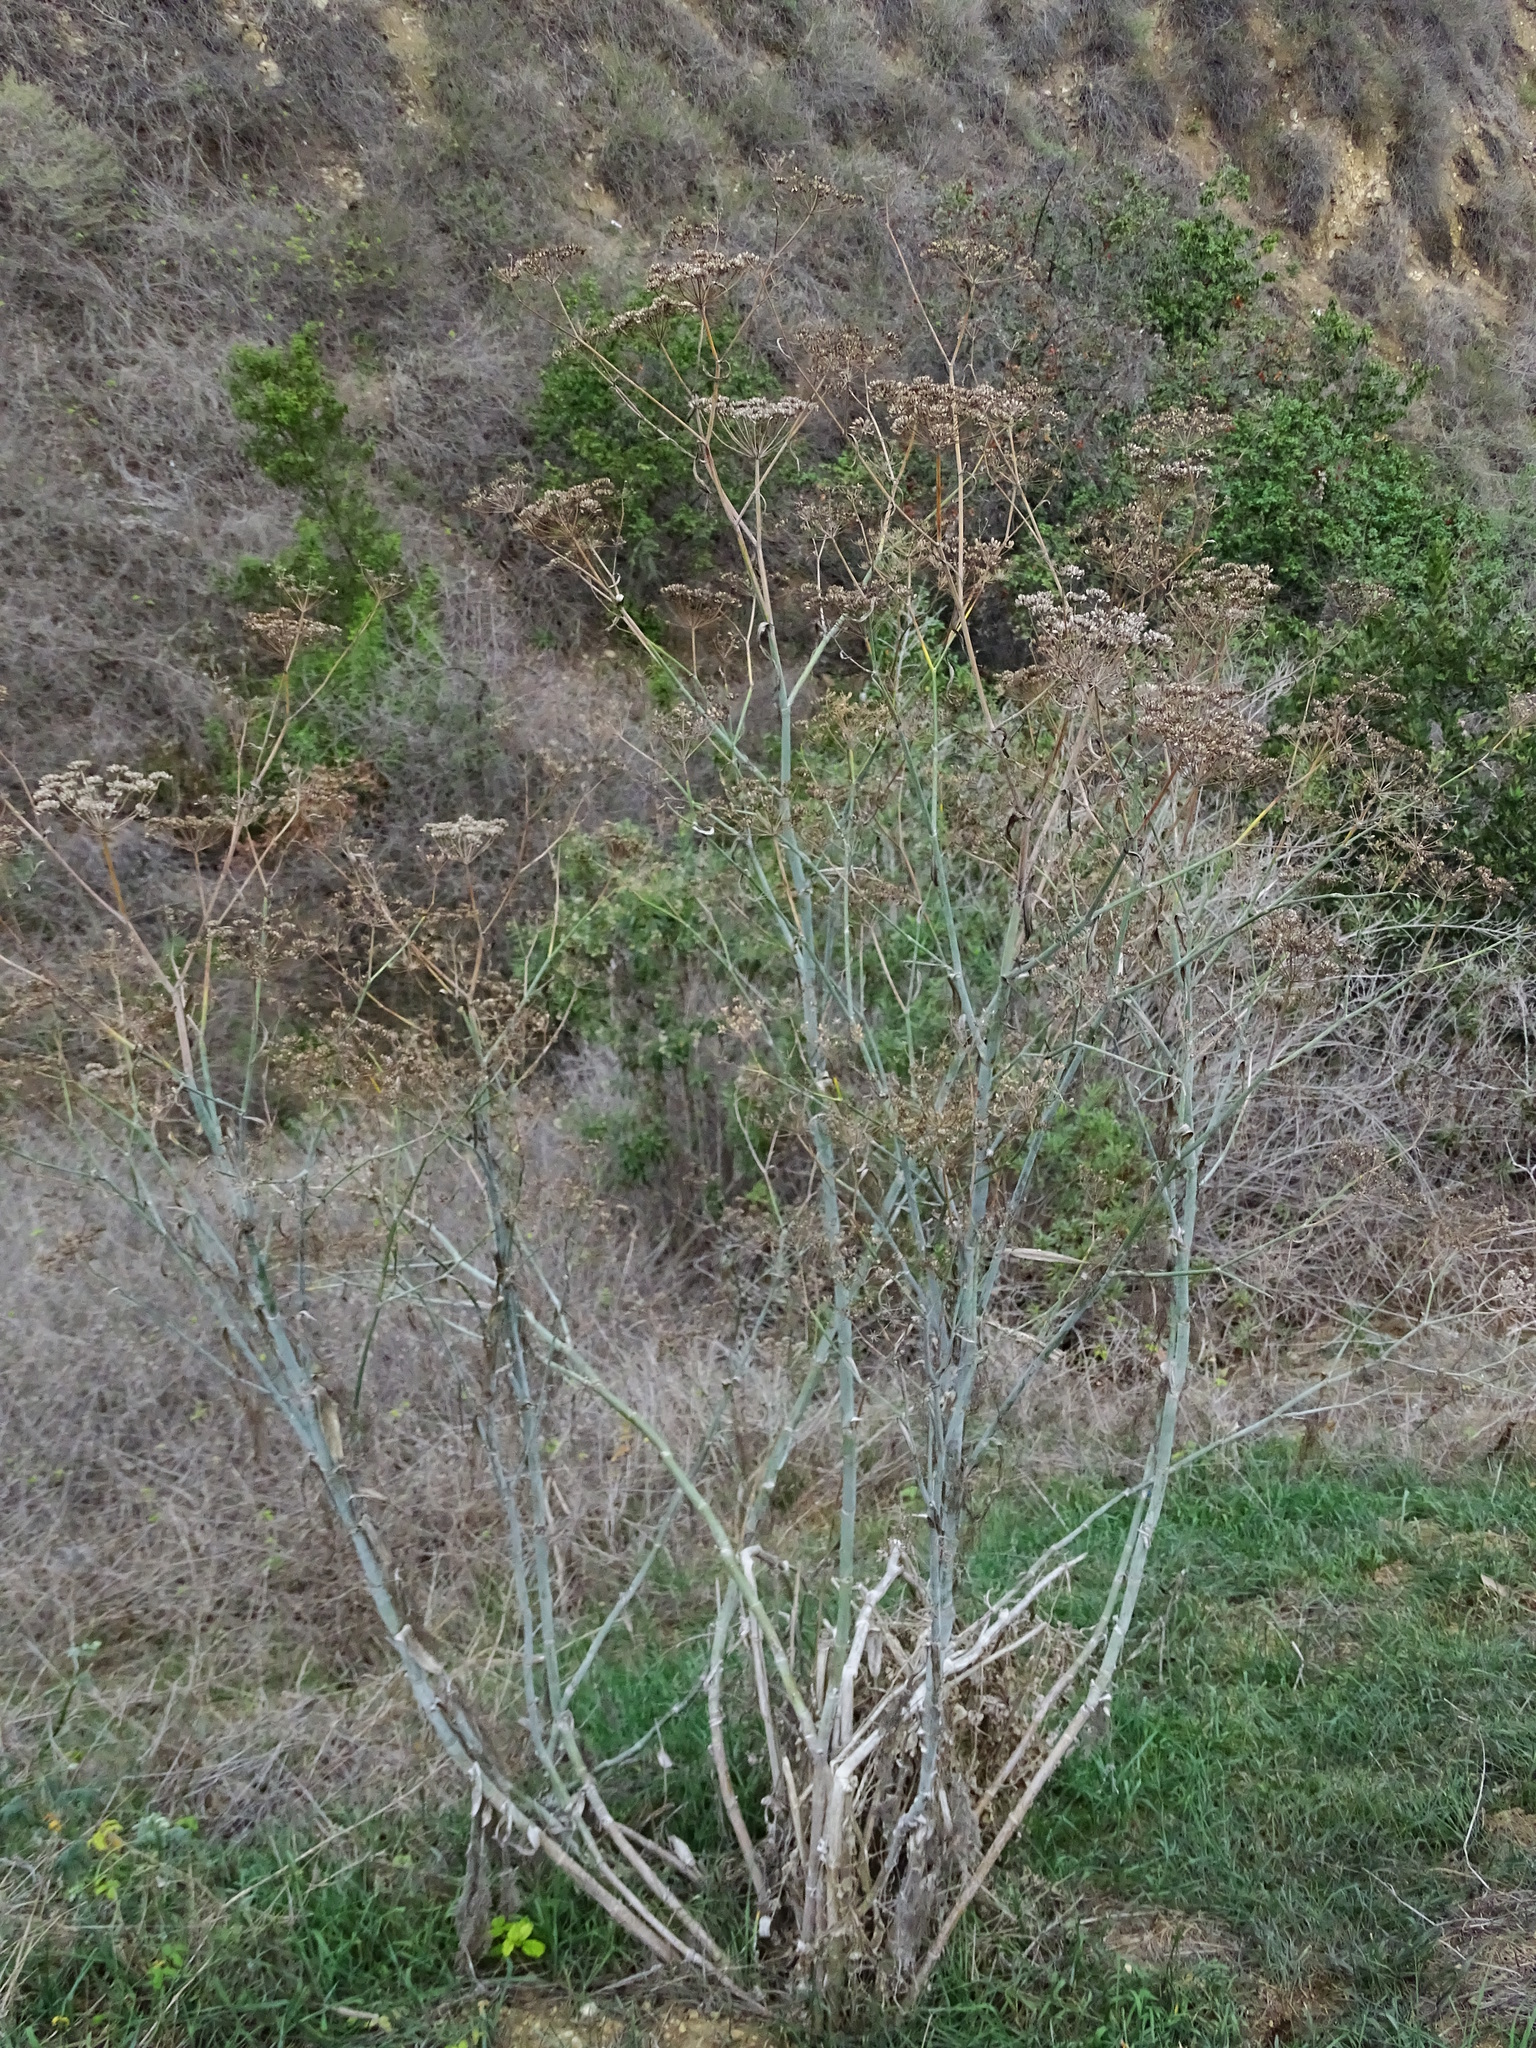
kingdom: Plantae
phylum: Tracheophyta
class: Magnoliopsida
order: Apiales
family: Apiaceae
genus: Foeniculum
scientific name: Foeniculum vulgare
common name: Fennel
